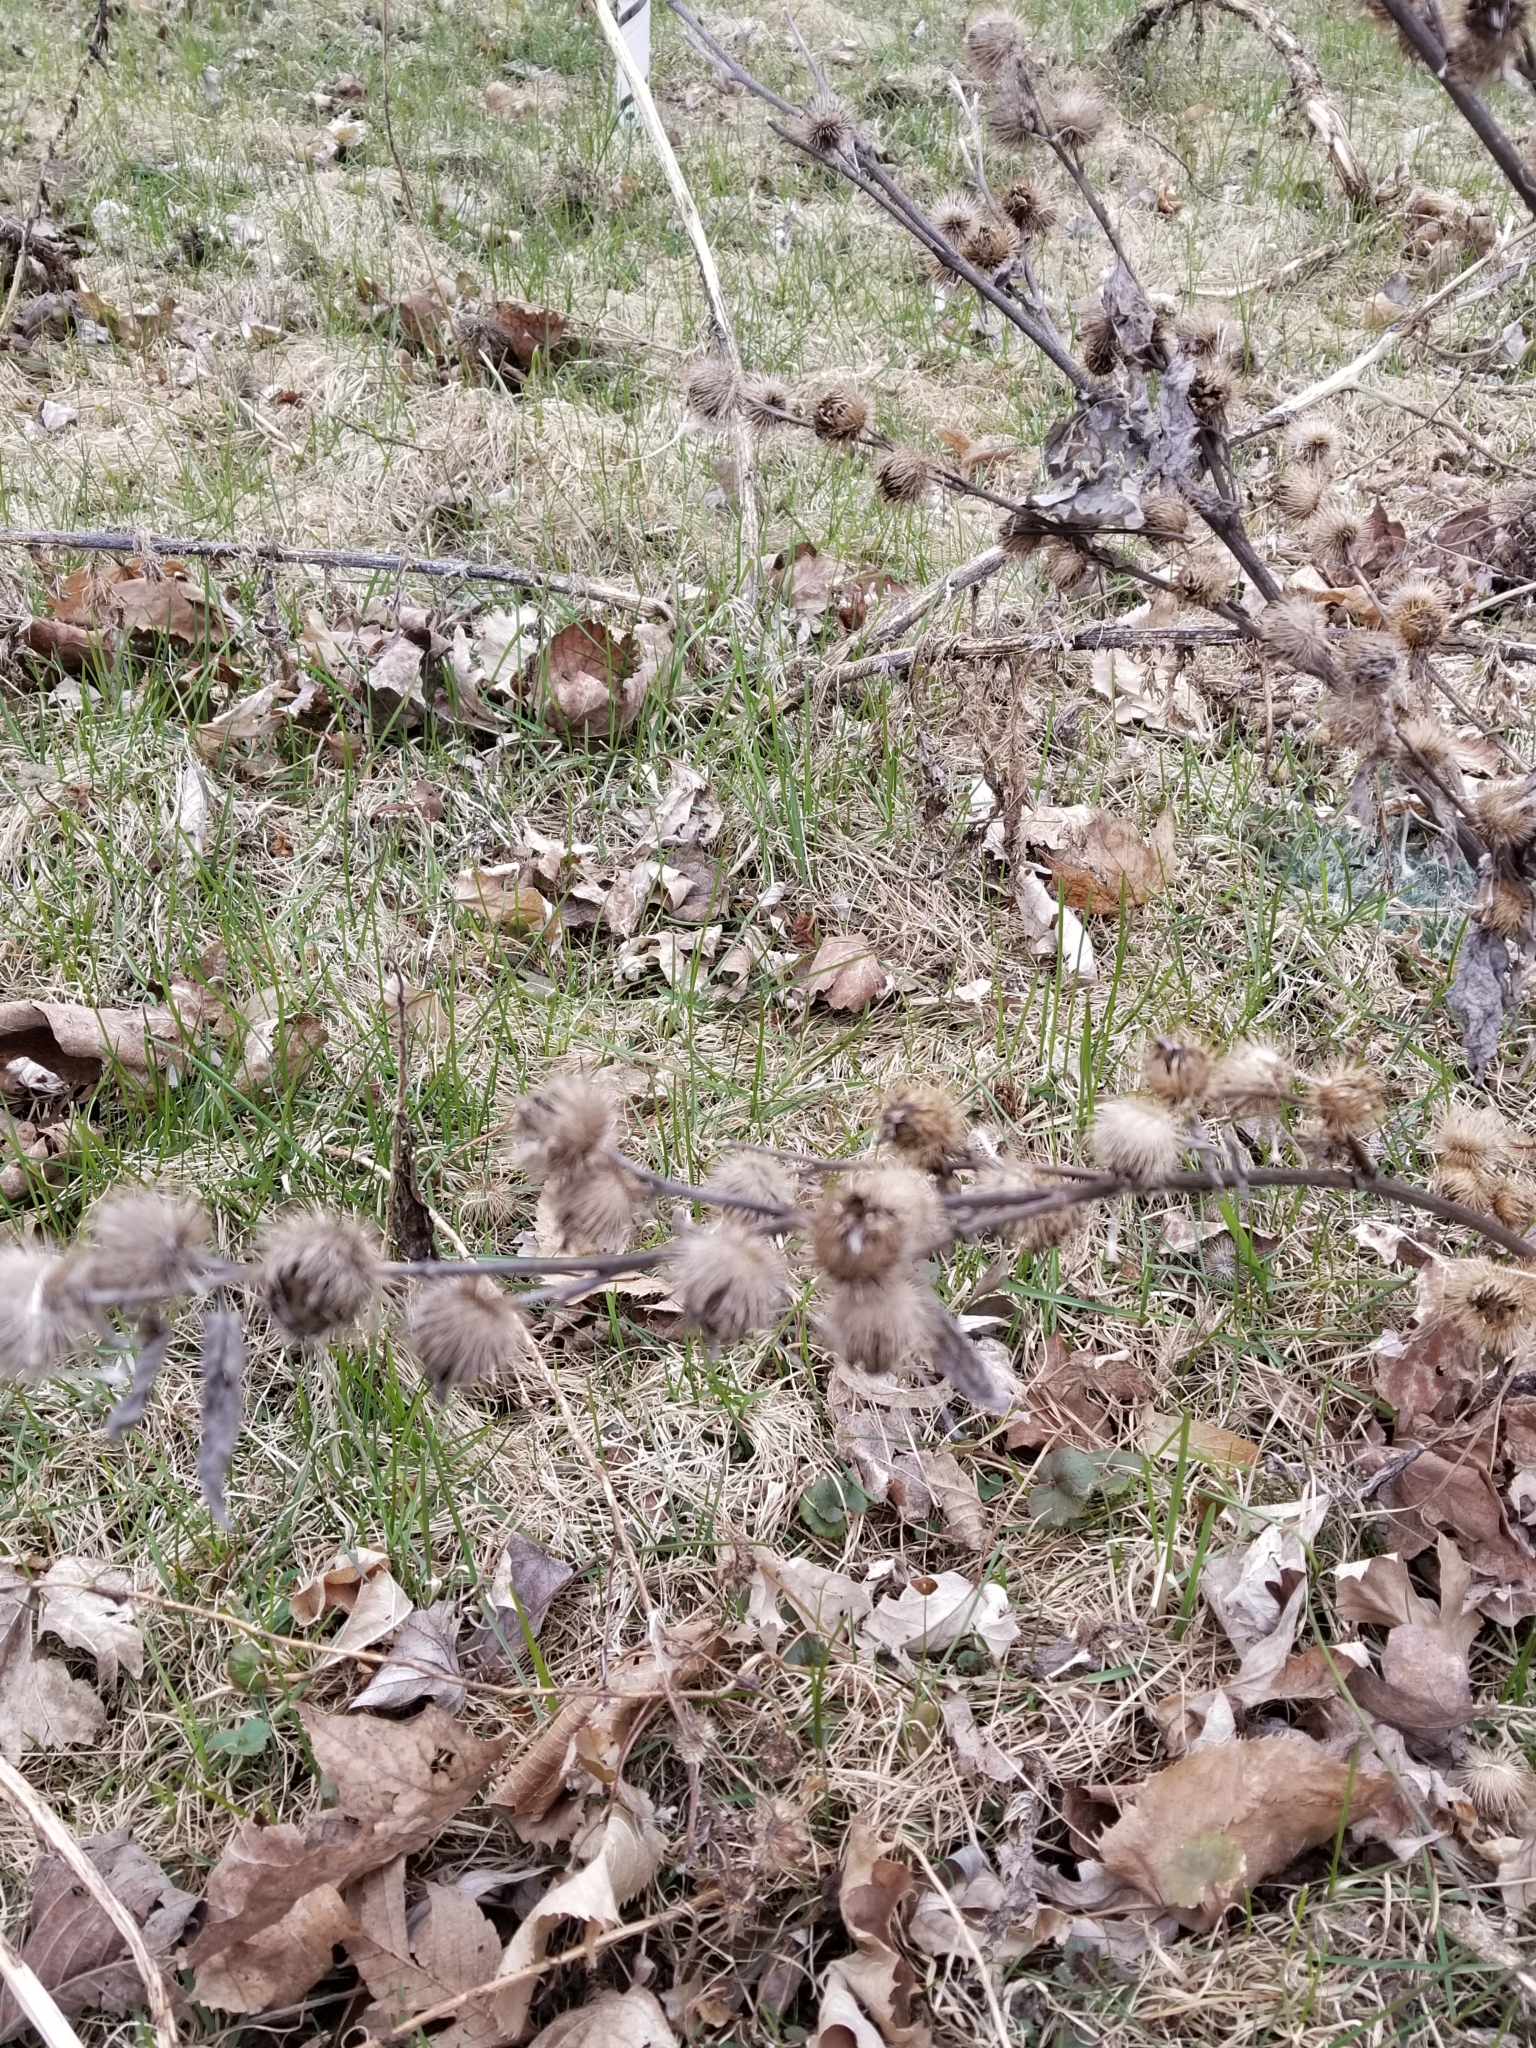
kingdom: Plantae
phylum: Tracheophyta
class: Magnoliopsida
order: Asterales
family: Asteraceae
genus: Arctium
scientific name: Arctium minus
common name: Lesser burdock
